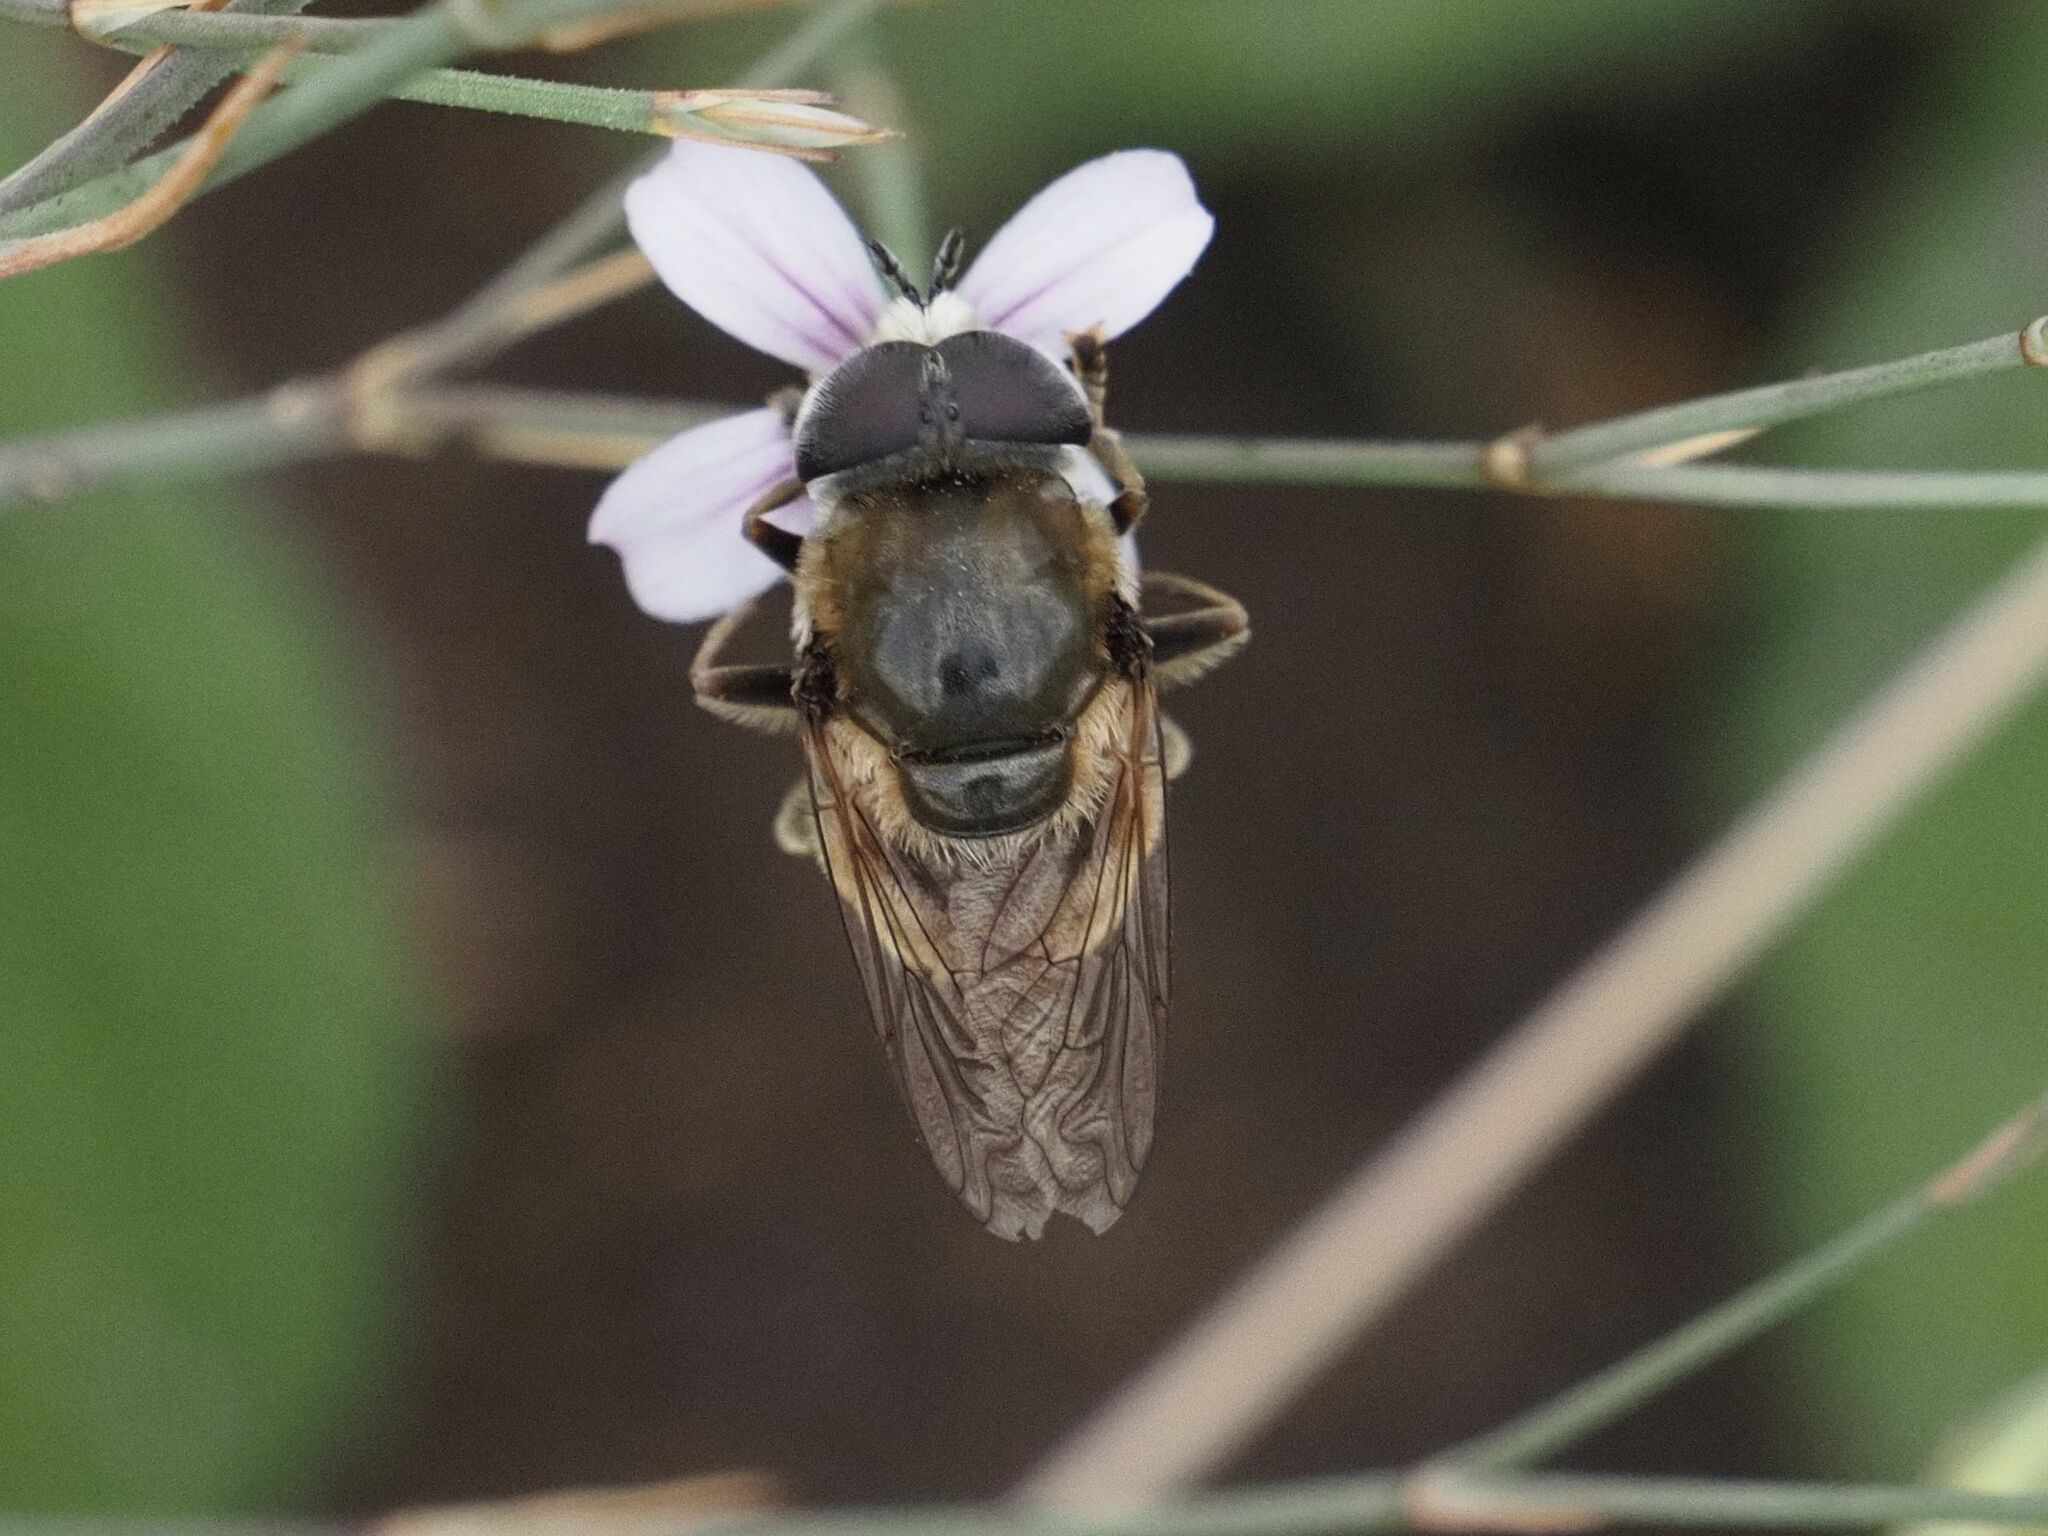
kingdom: Animalia
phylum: Arthropoda
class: Insecta
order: Diptera
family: Syrphidae
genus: Merodon
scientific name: Merodon albifrons
